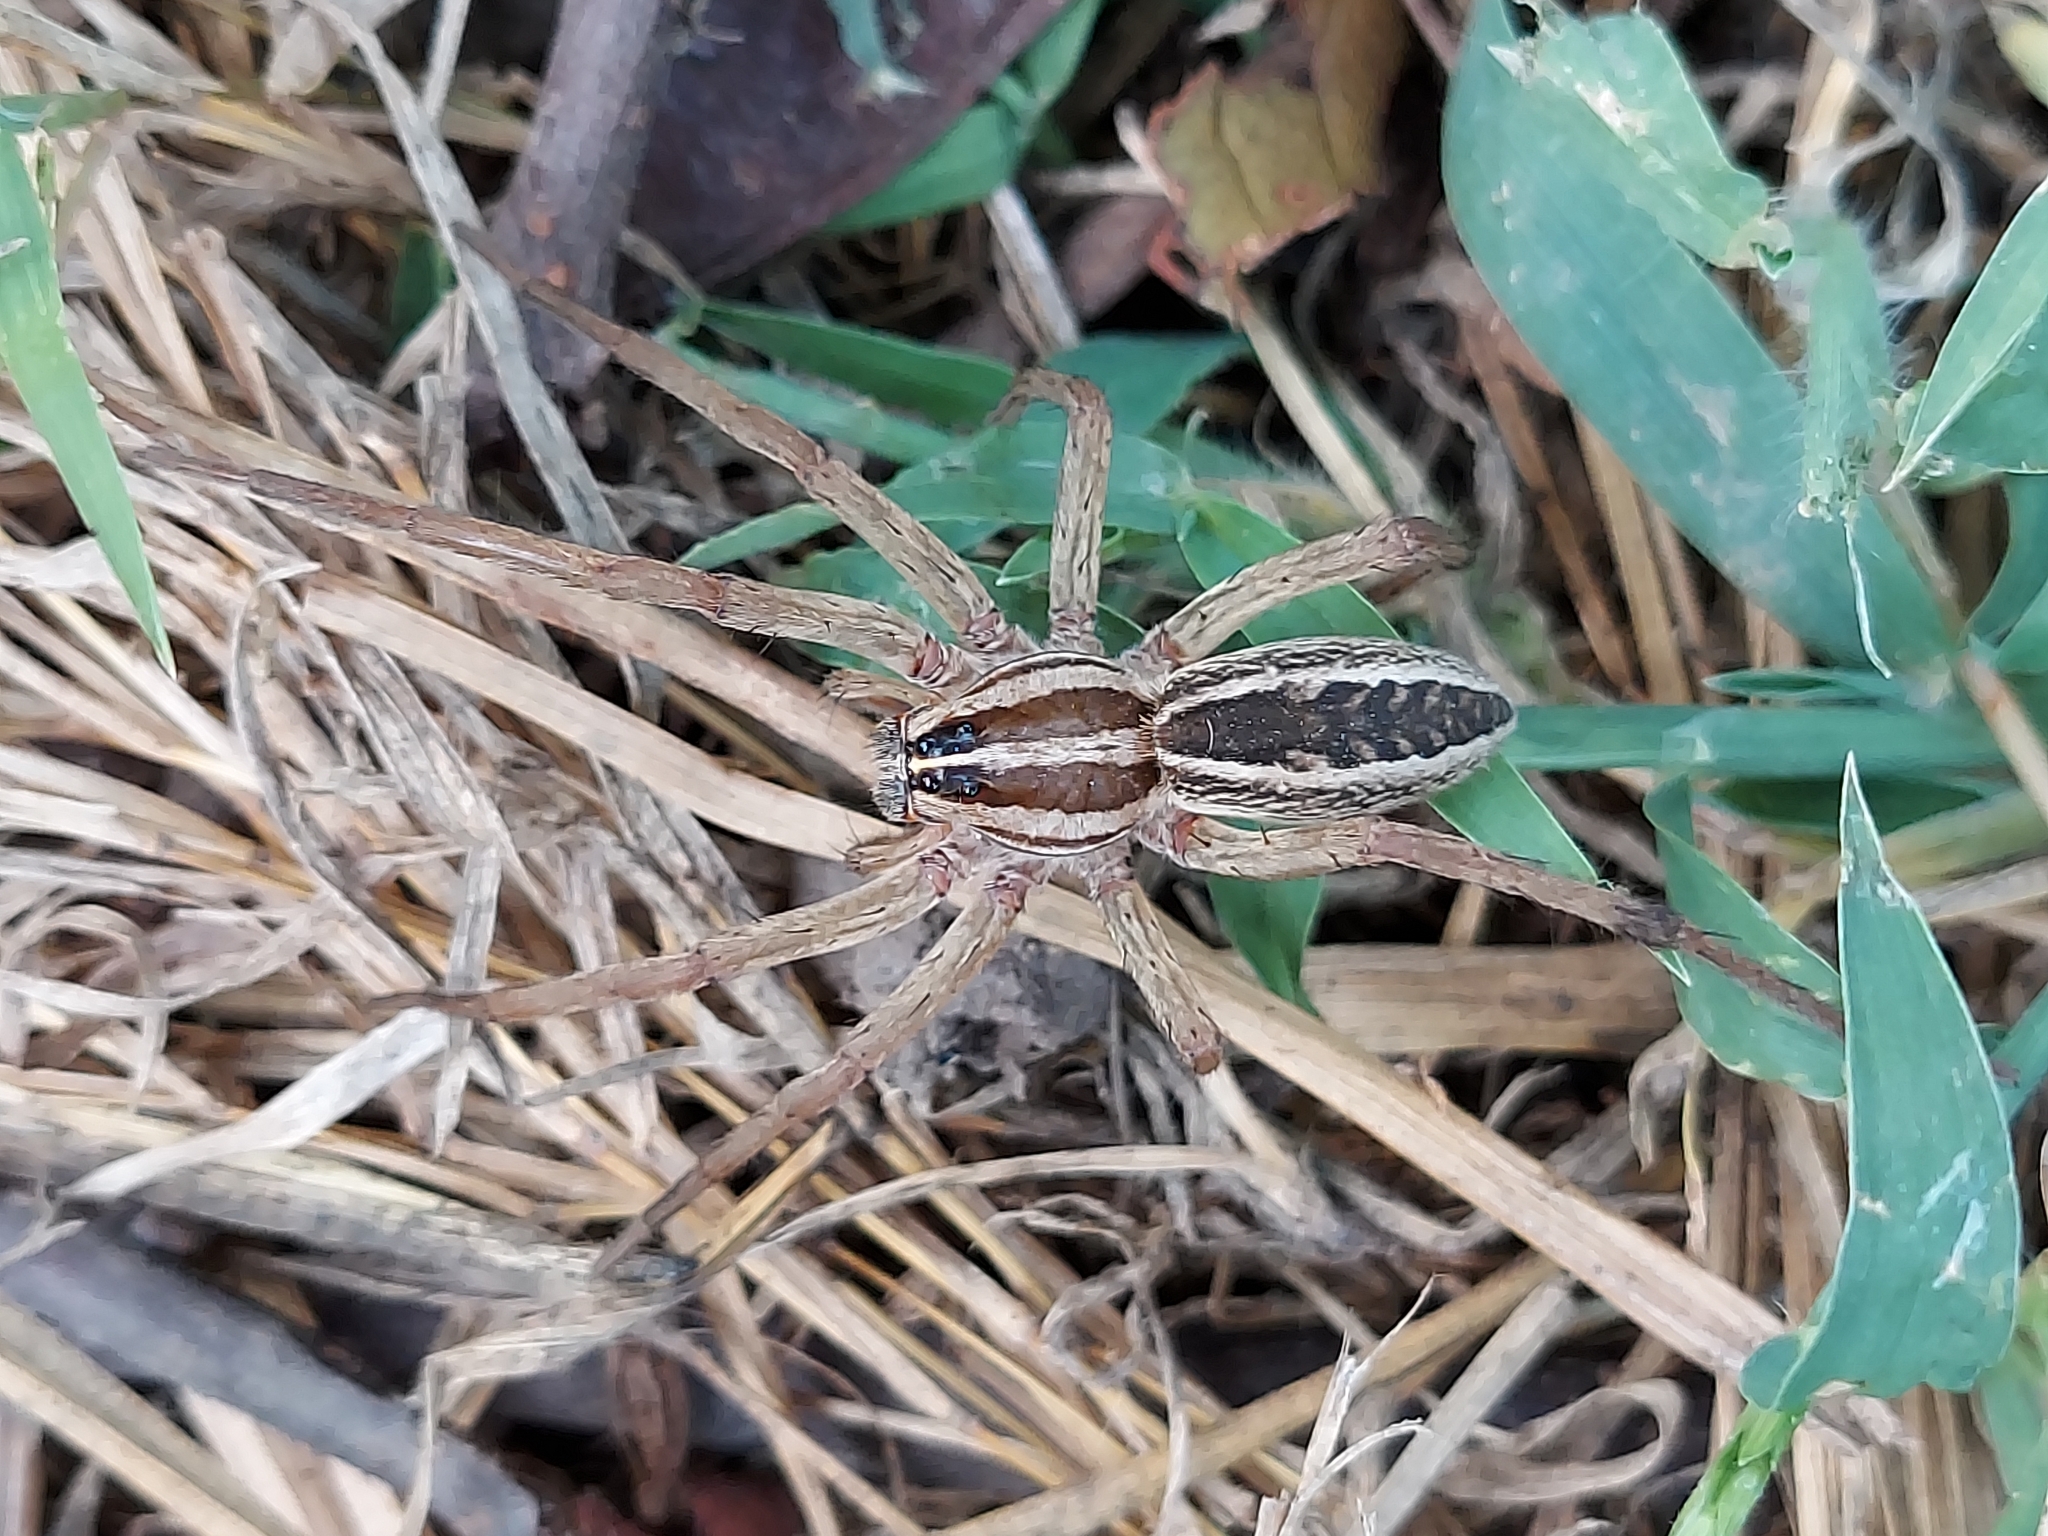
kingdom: Animalia
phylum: Arthropoda
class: Arachnida
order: Araneae
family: Lycosidae
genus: Rabidosa
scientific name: Rabidosa rabida
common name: Rabid wolf spider
